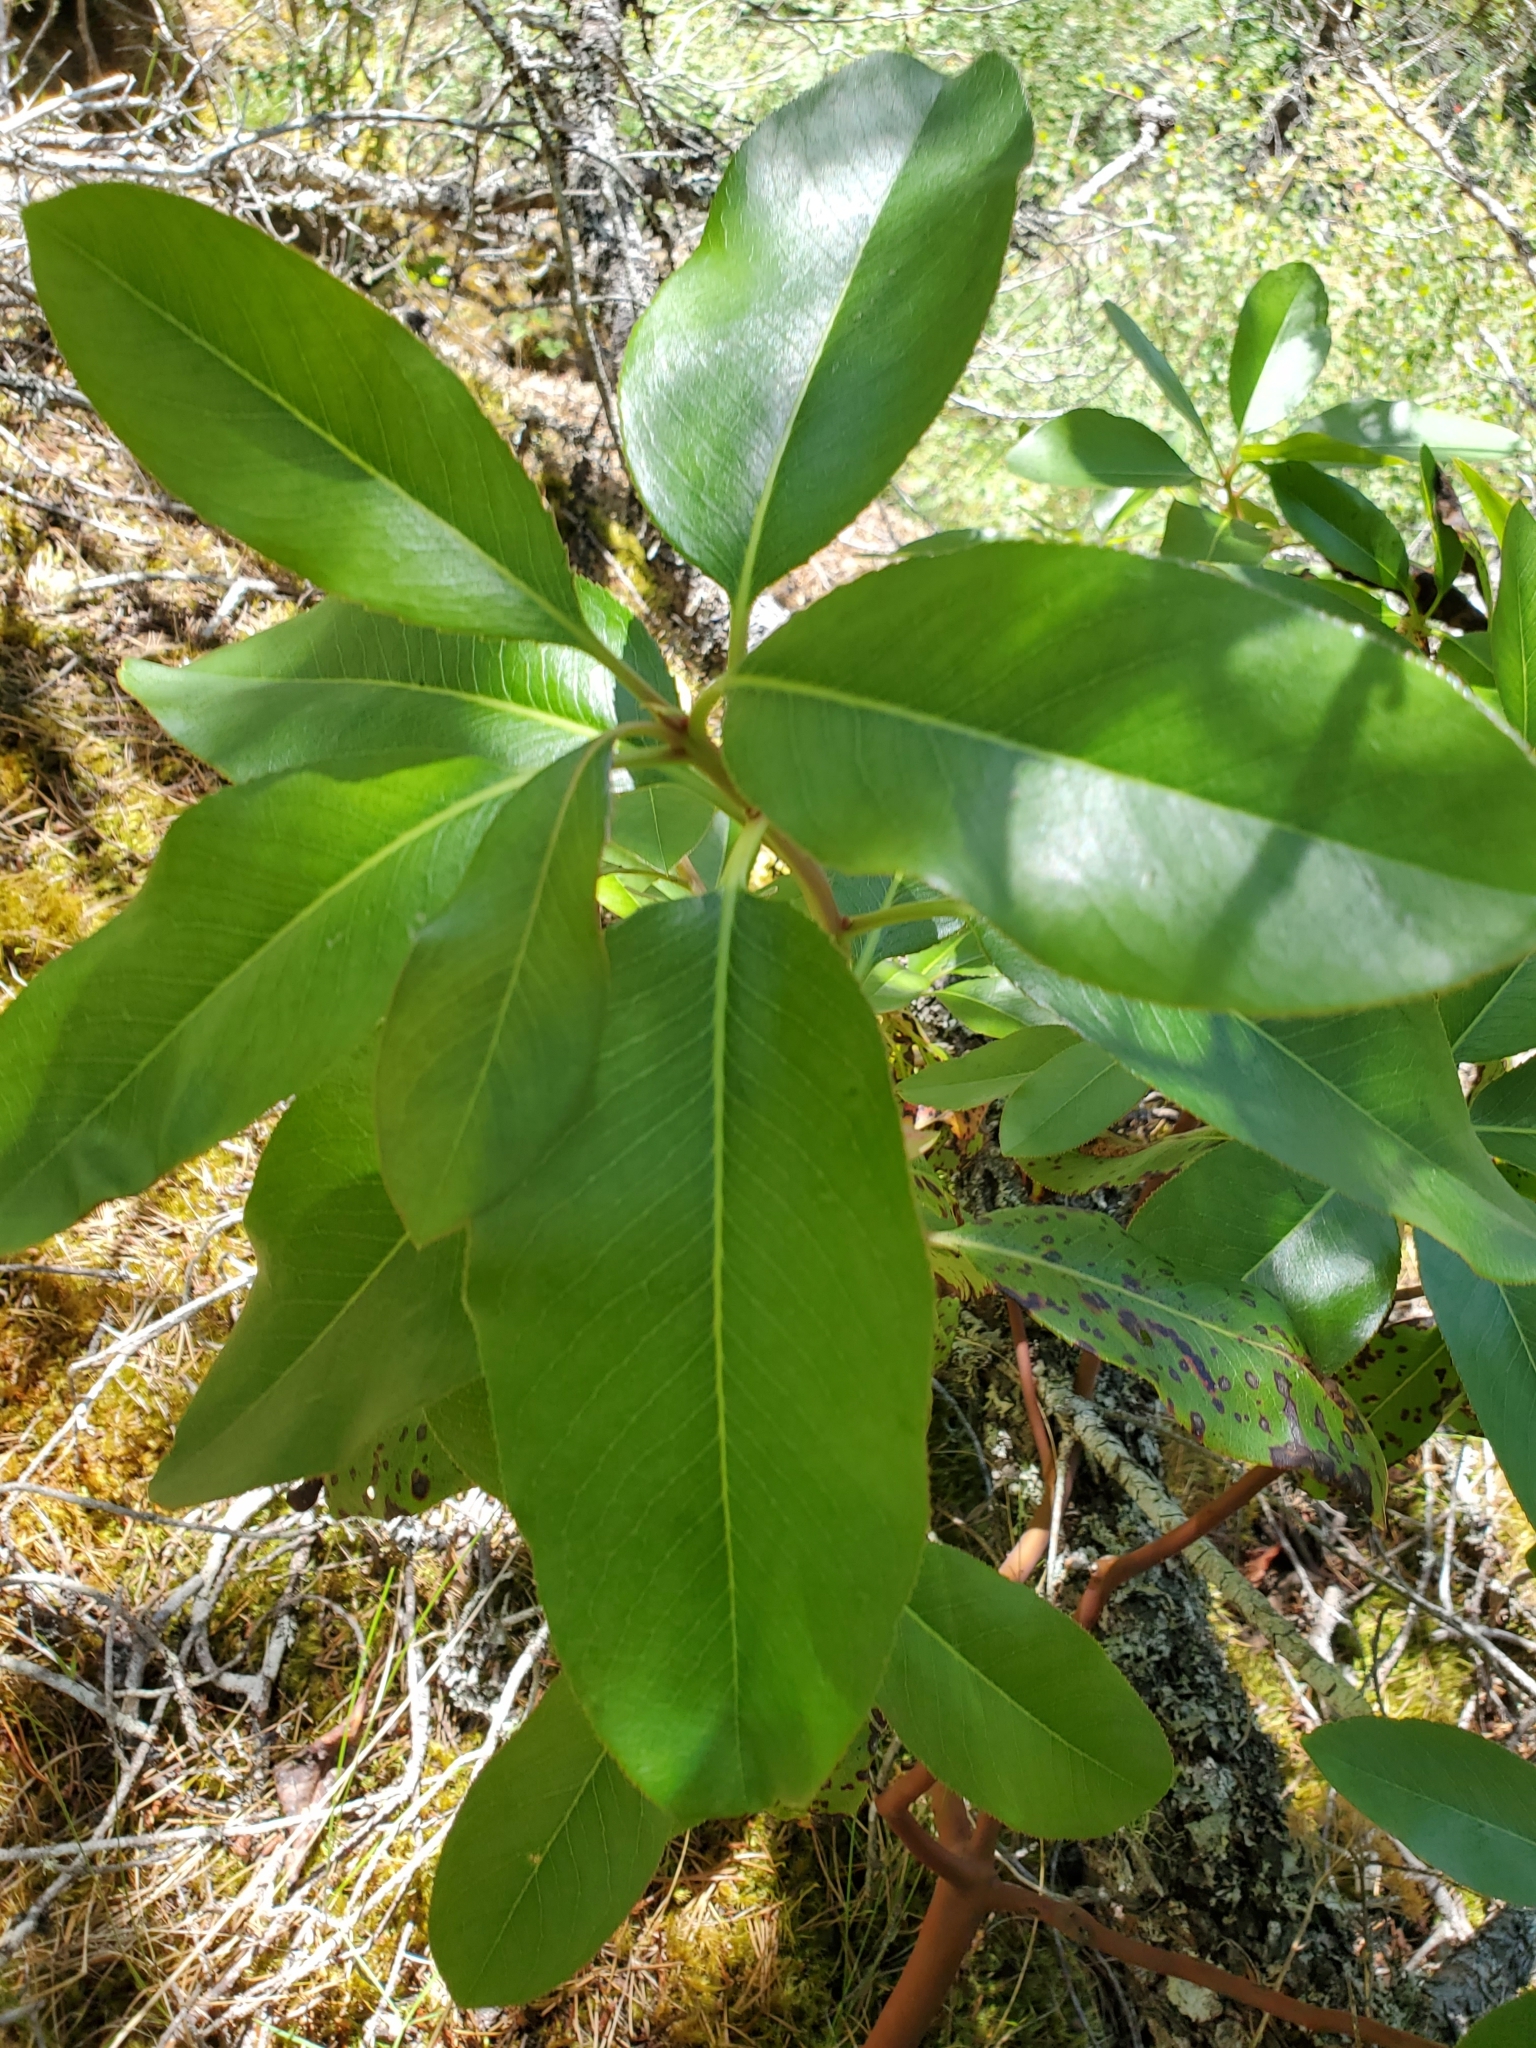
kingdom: Plantae
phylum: Tracheophyta
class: Magnoliopsida
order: Ericales
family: Ericaceae
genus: Arbutus
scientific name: Arbutus menziesii
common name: Pacific madrone
